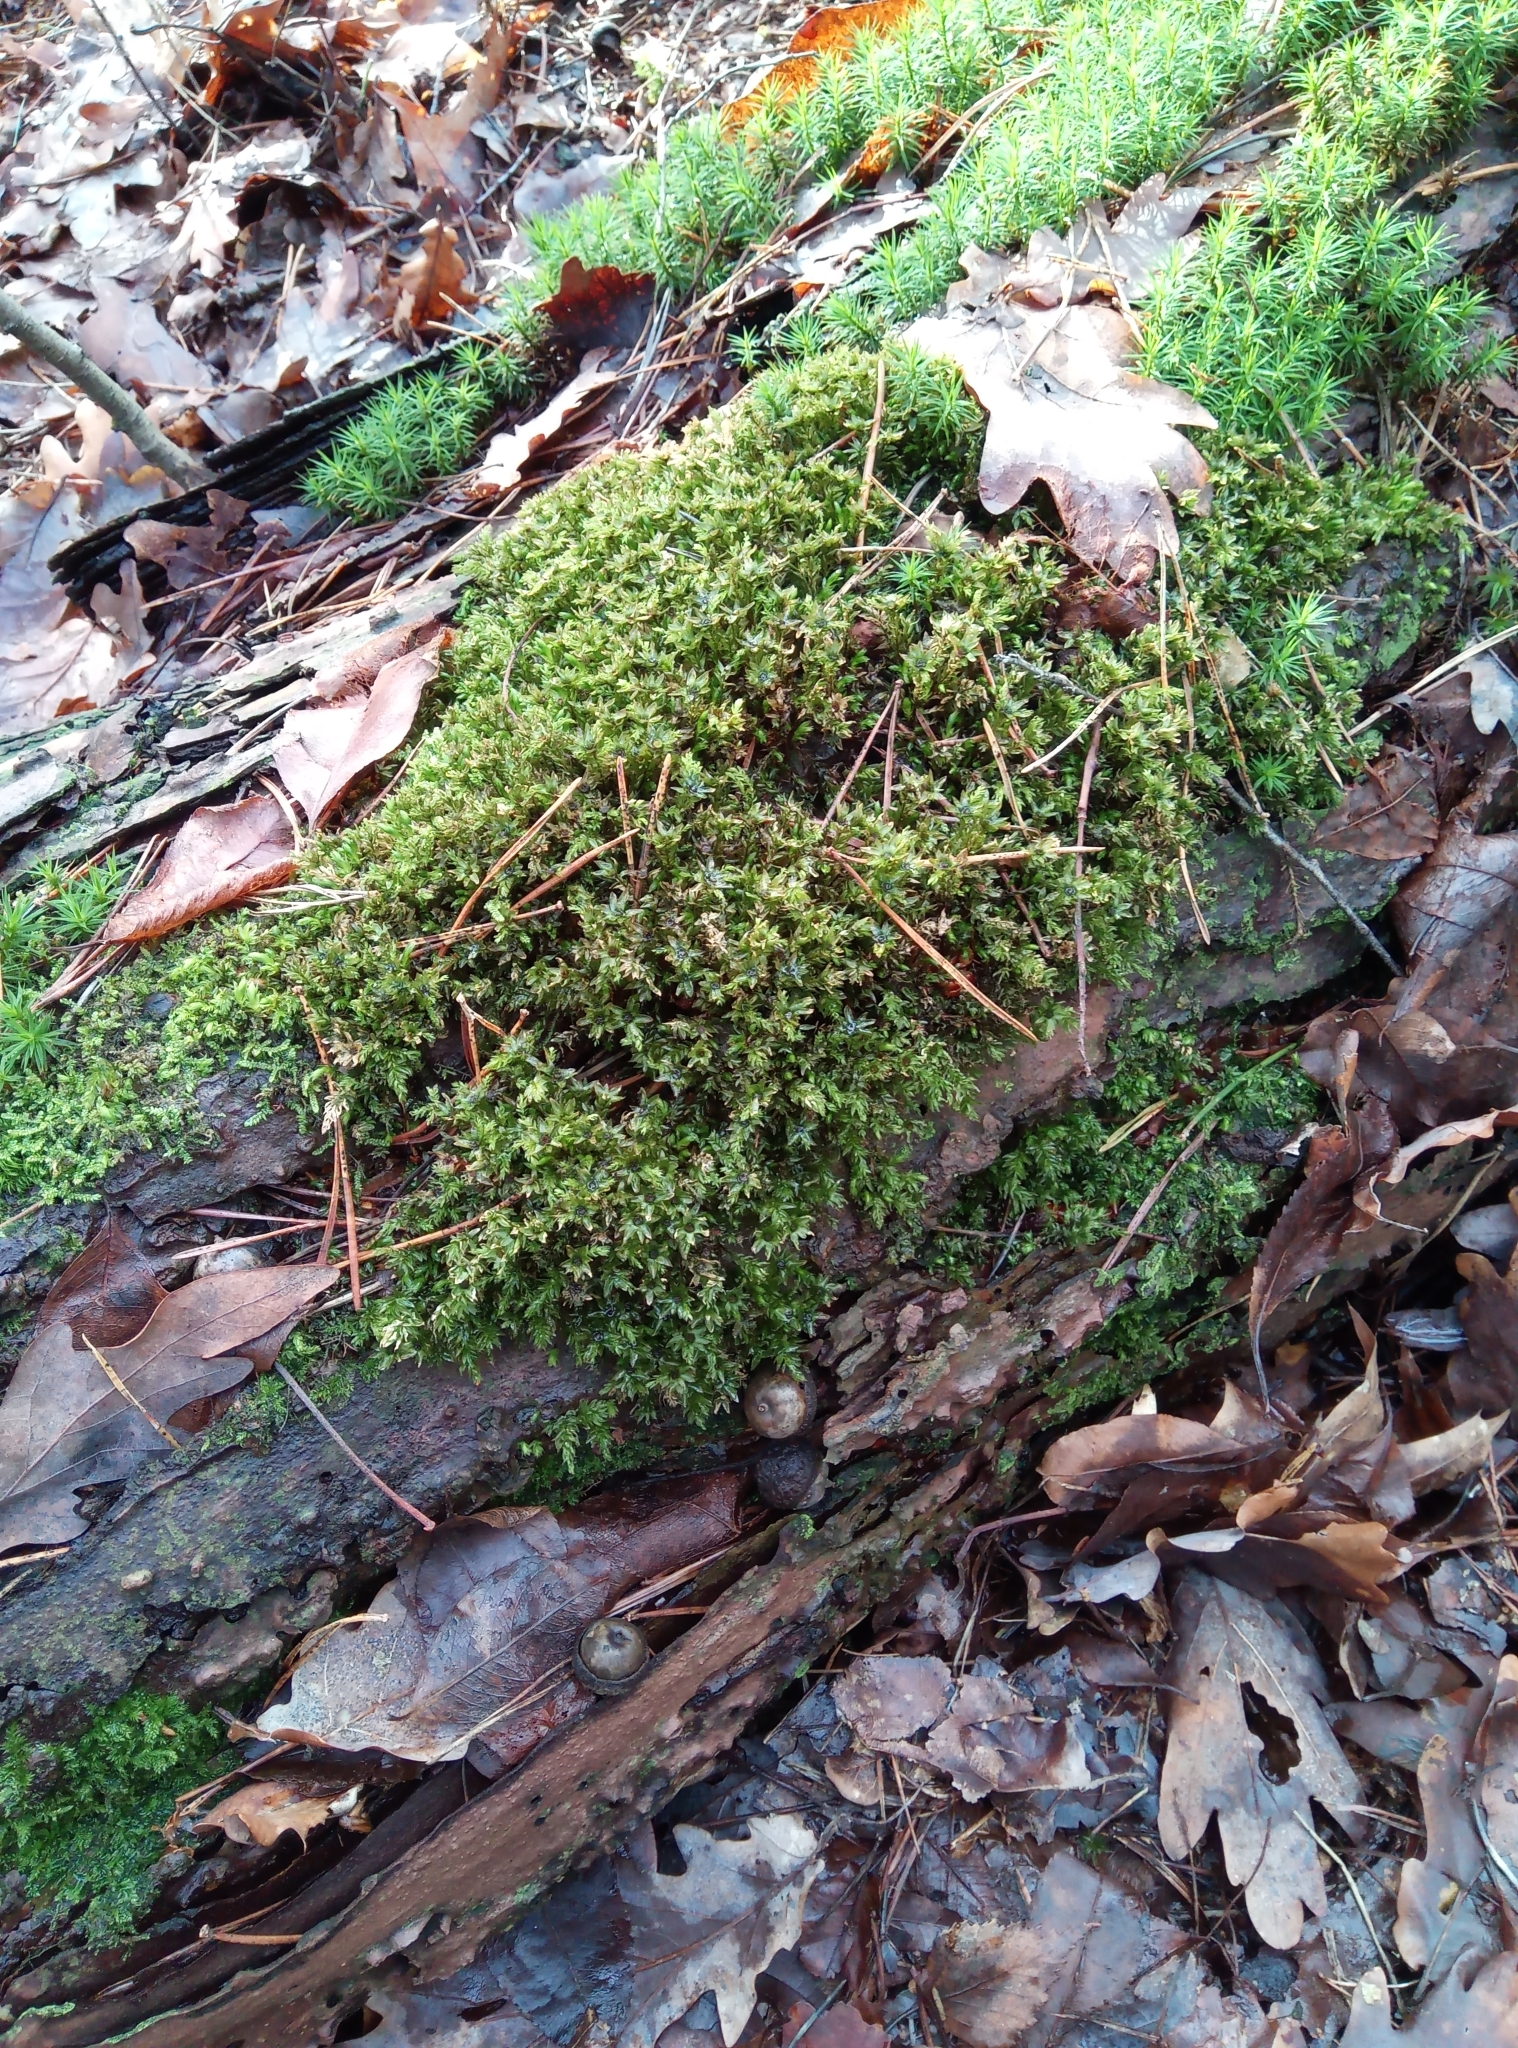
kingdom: Plantae
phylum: Bryophyta
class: Bryopsida
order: Bryales
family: Mniaceae
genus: Mnium
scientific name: Mnium hornum
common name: Swan's-neck leafy moss
